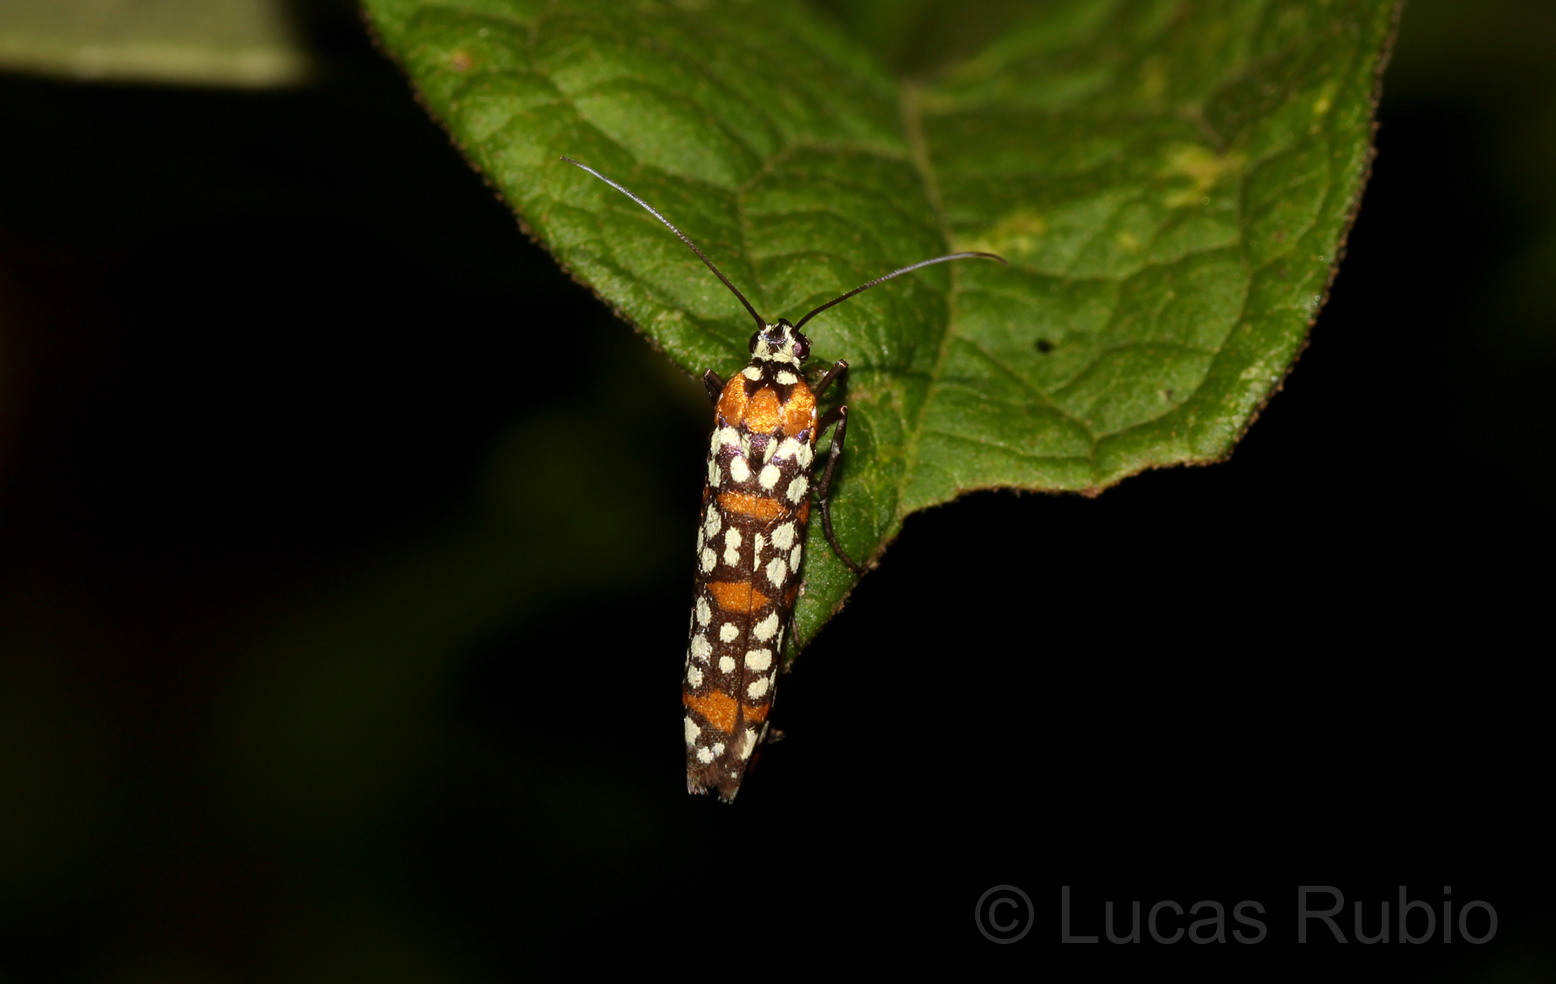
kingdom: Animalia
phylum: Arthropoda
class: Insecta
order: Lepidoptera
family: Attevidae
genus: Atteva
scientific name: Atteva punctella
